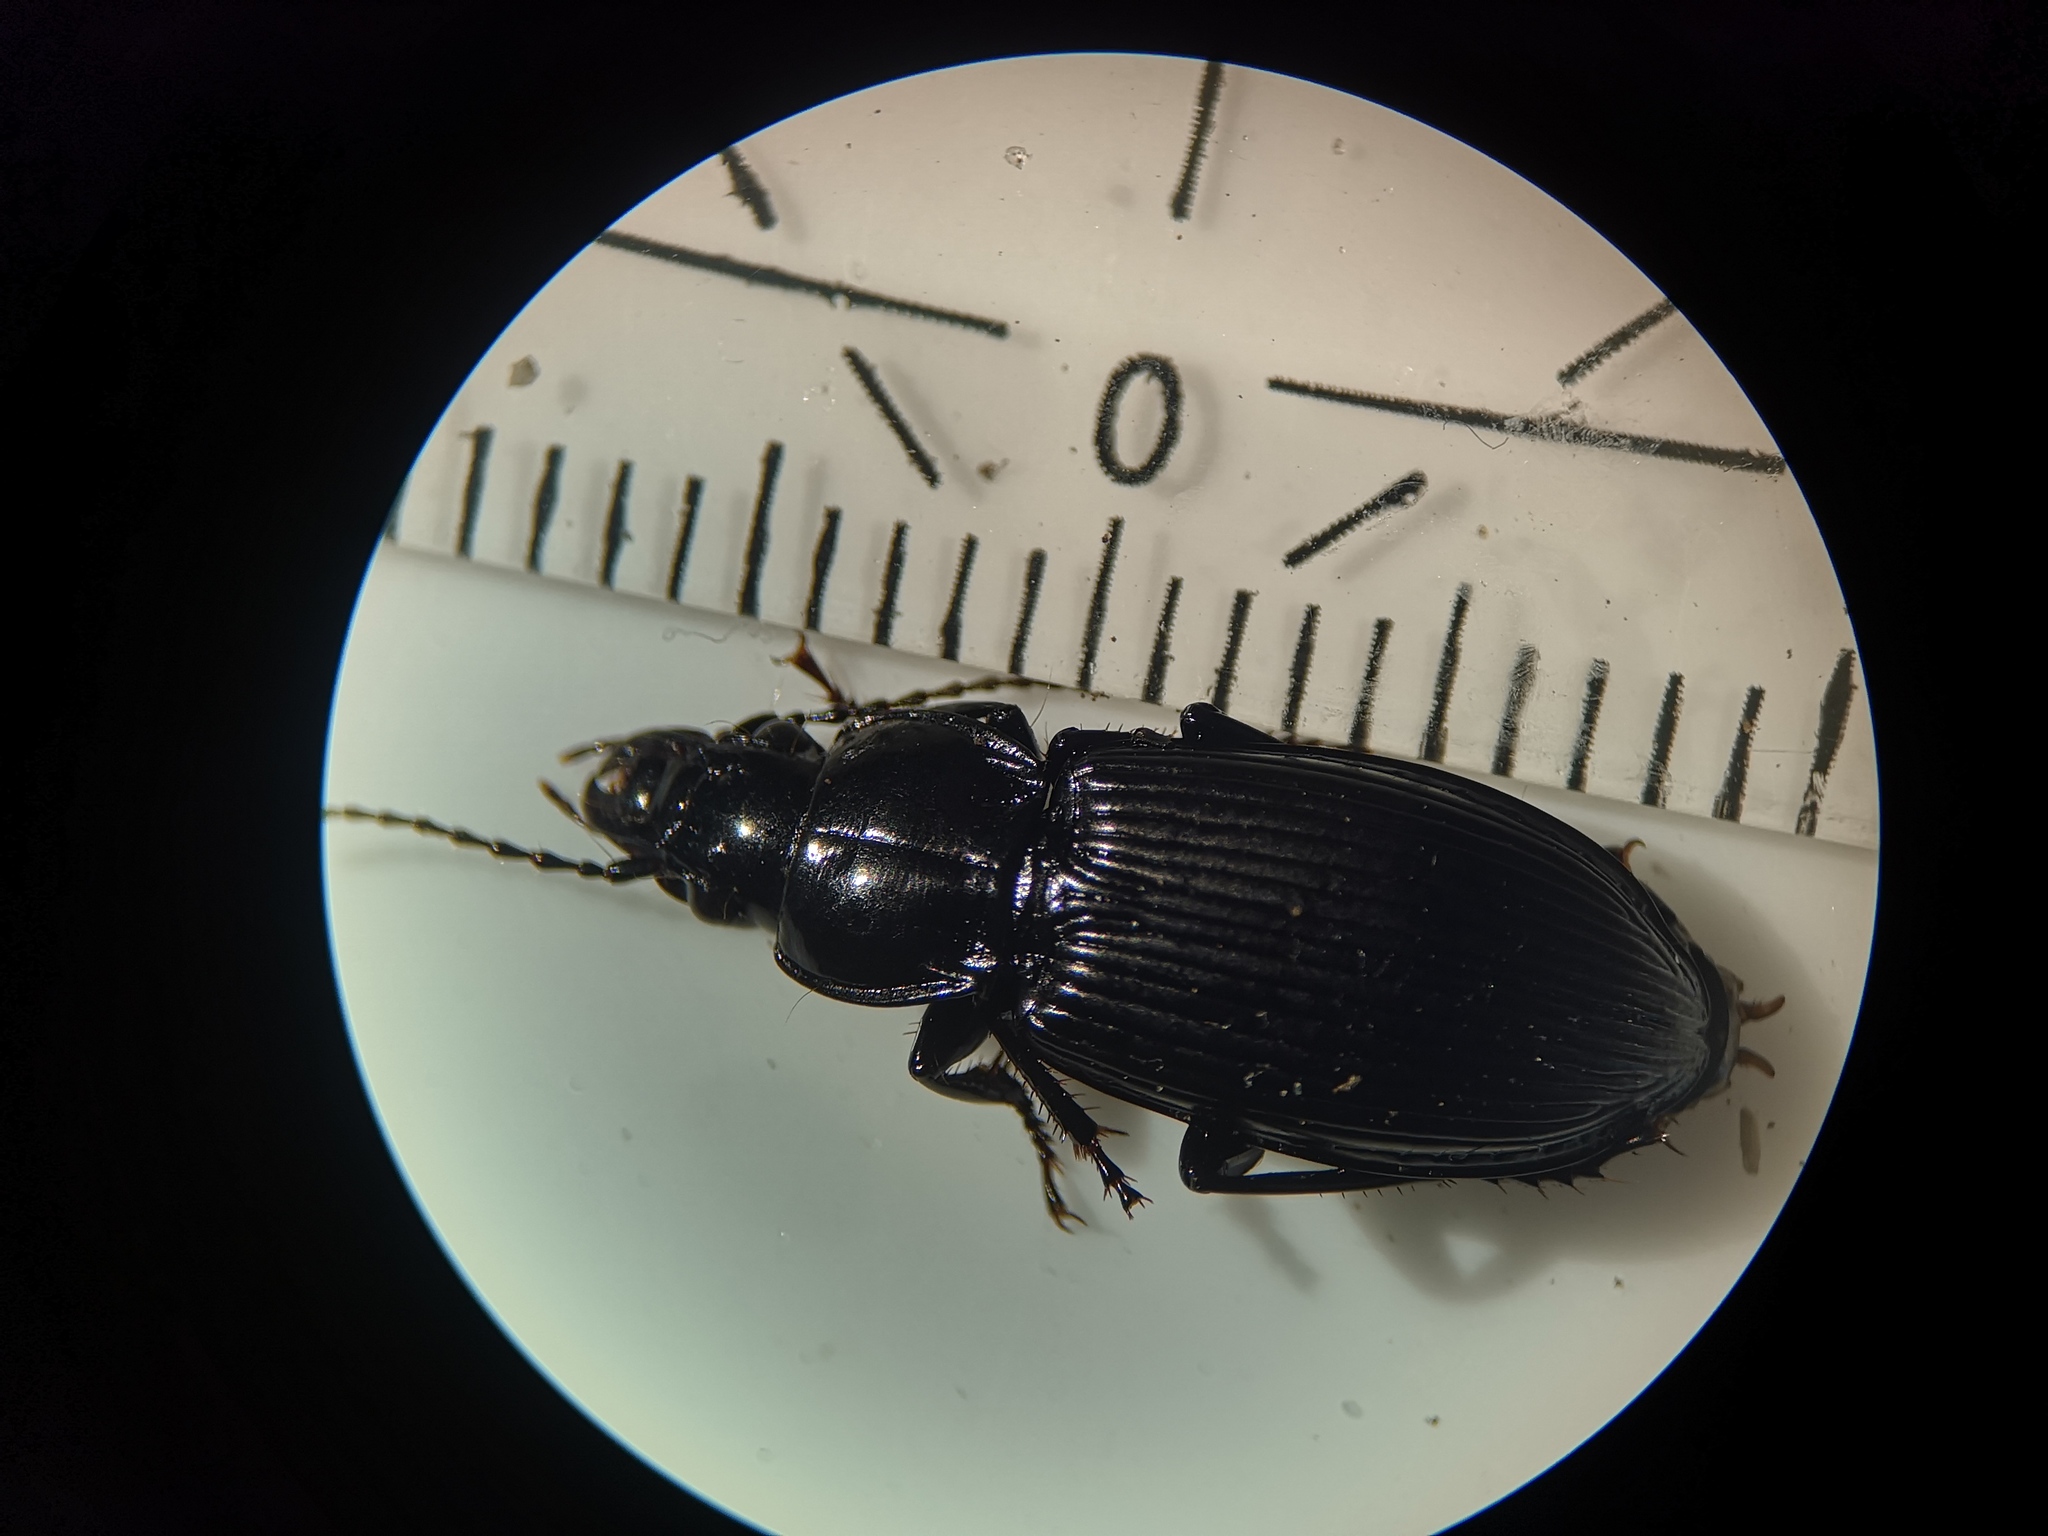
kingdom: Animalia
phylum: Arthropoda
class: Insecta
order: Coleoptera
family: Carabidae
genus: Pterostichus
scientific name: Pterostichus melanarius
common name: European dark harp ground beetle
